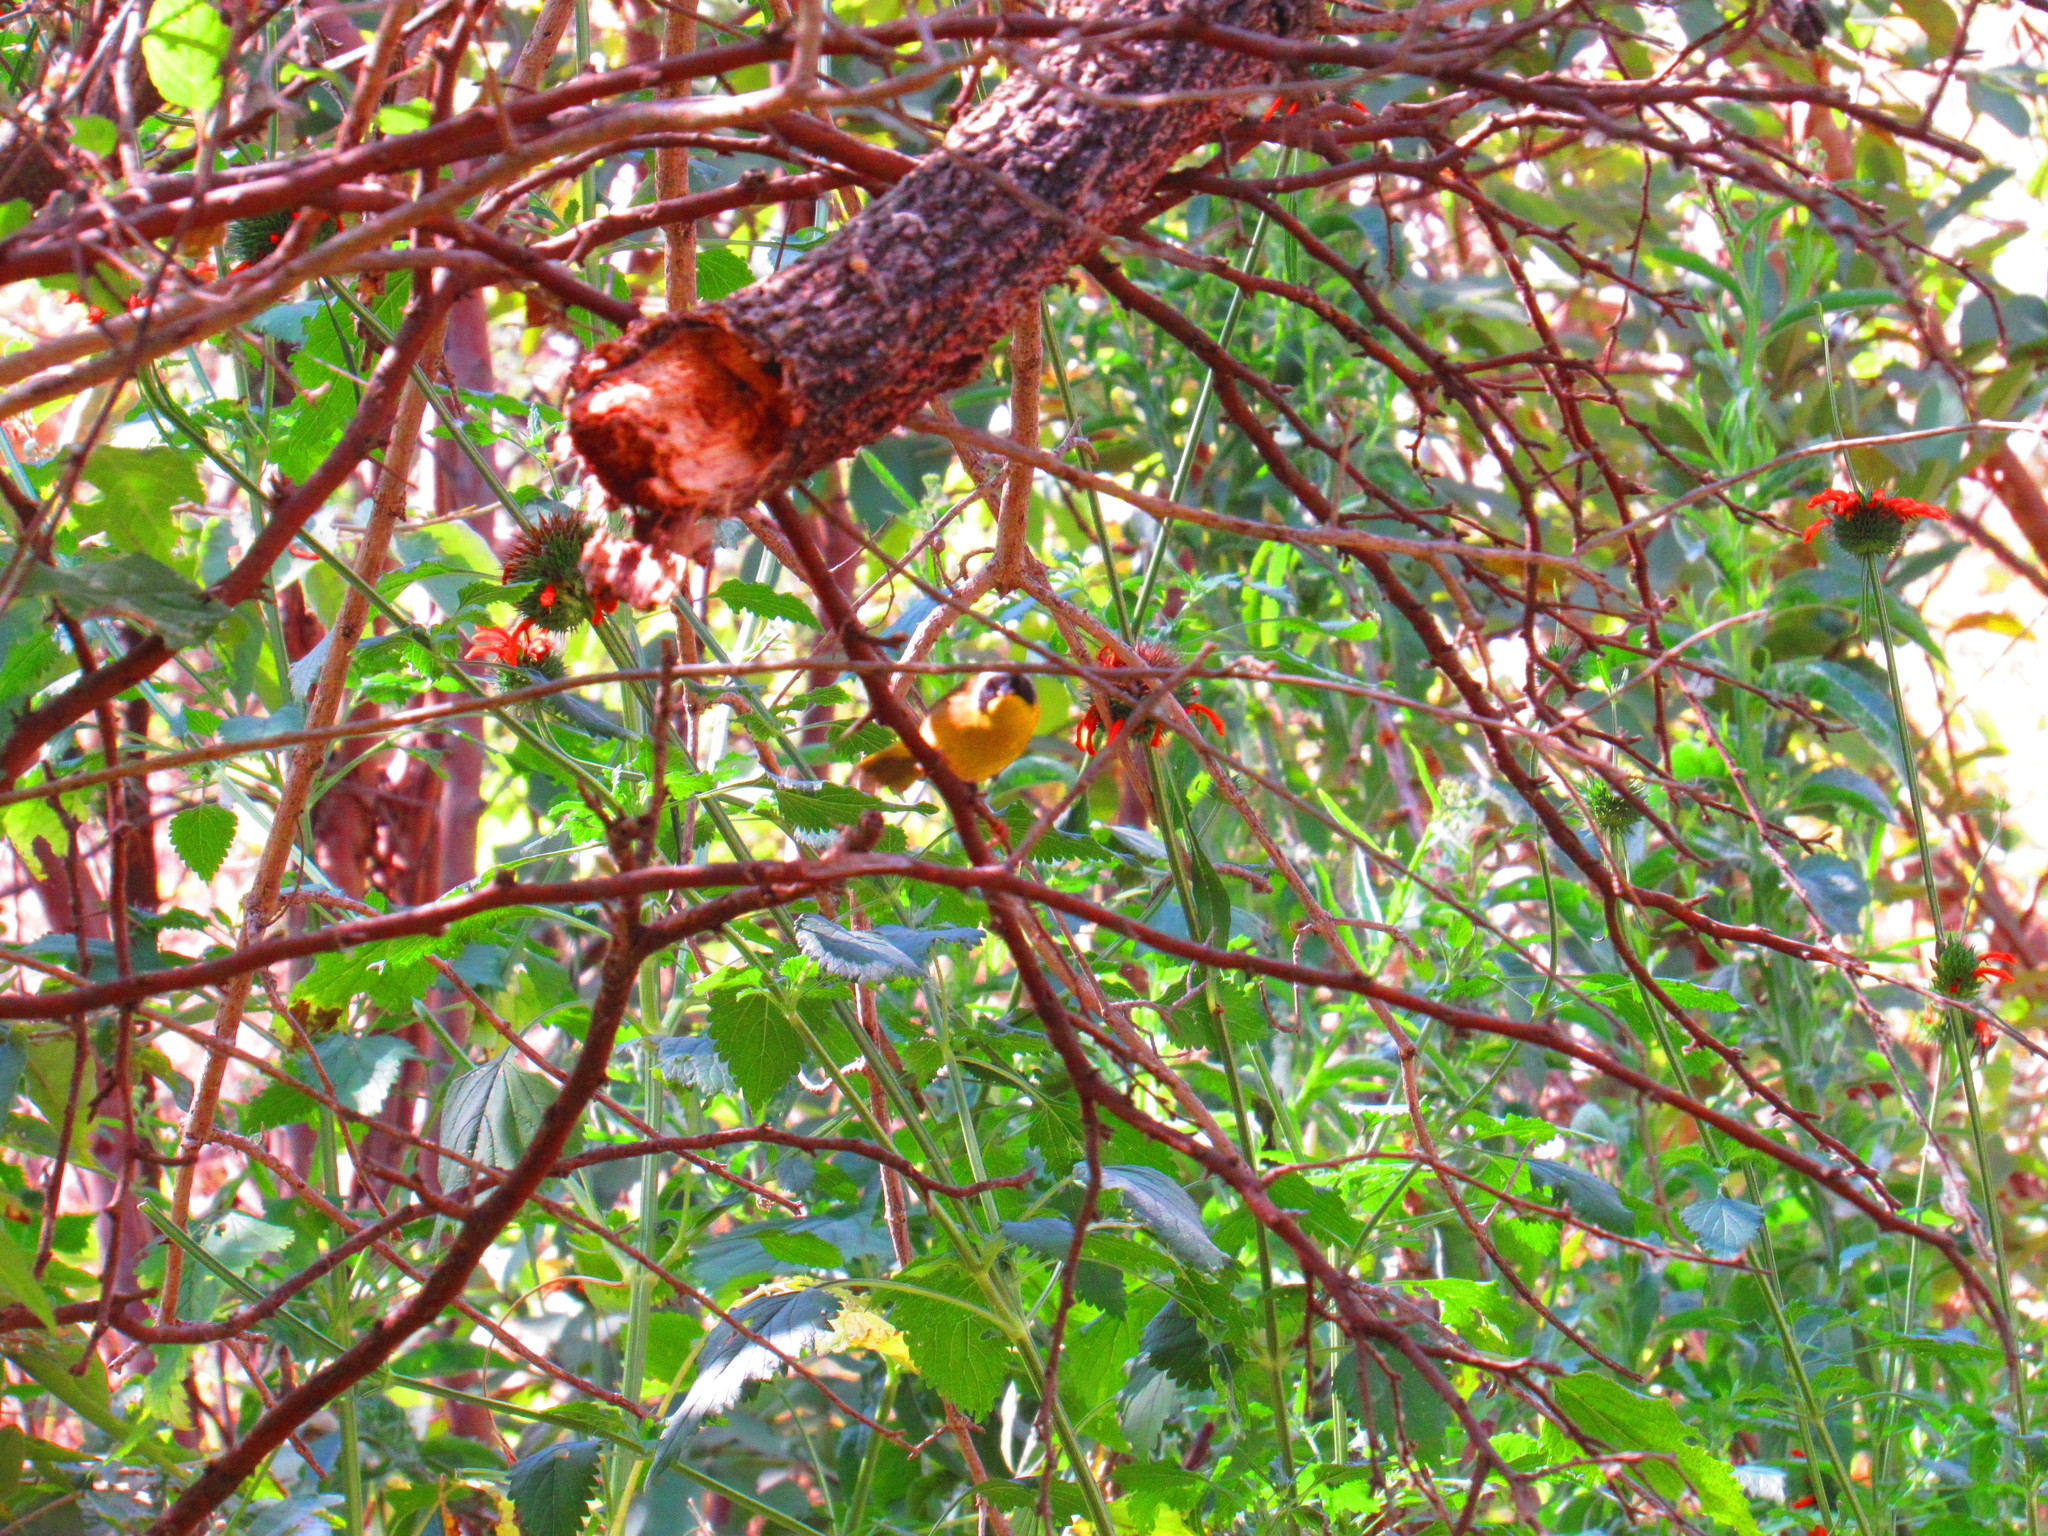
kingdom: Animalia
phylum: Chordata
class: Aves
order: Passeriformes
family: Parulidae
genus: Geothlypis
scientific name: Geothlypis trichas
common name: Common yellowthroat
